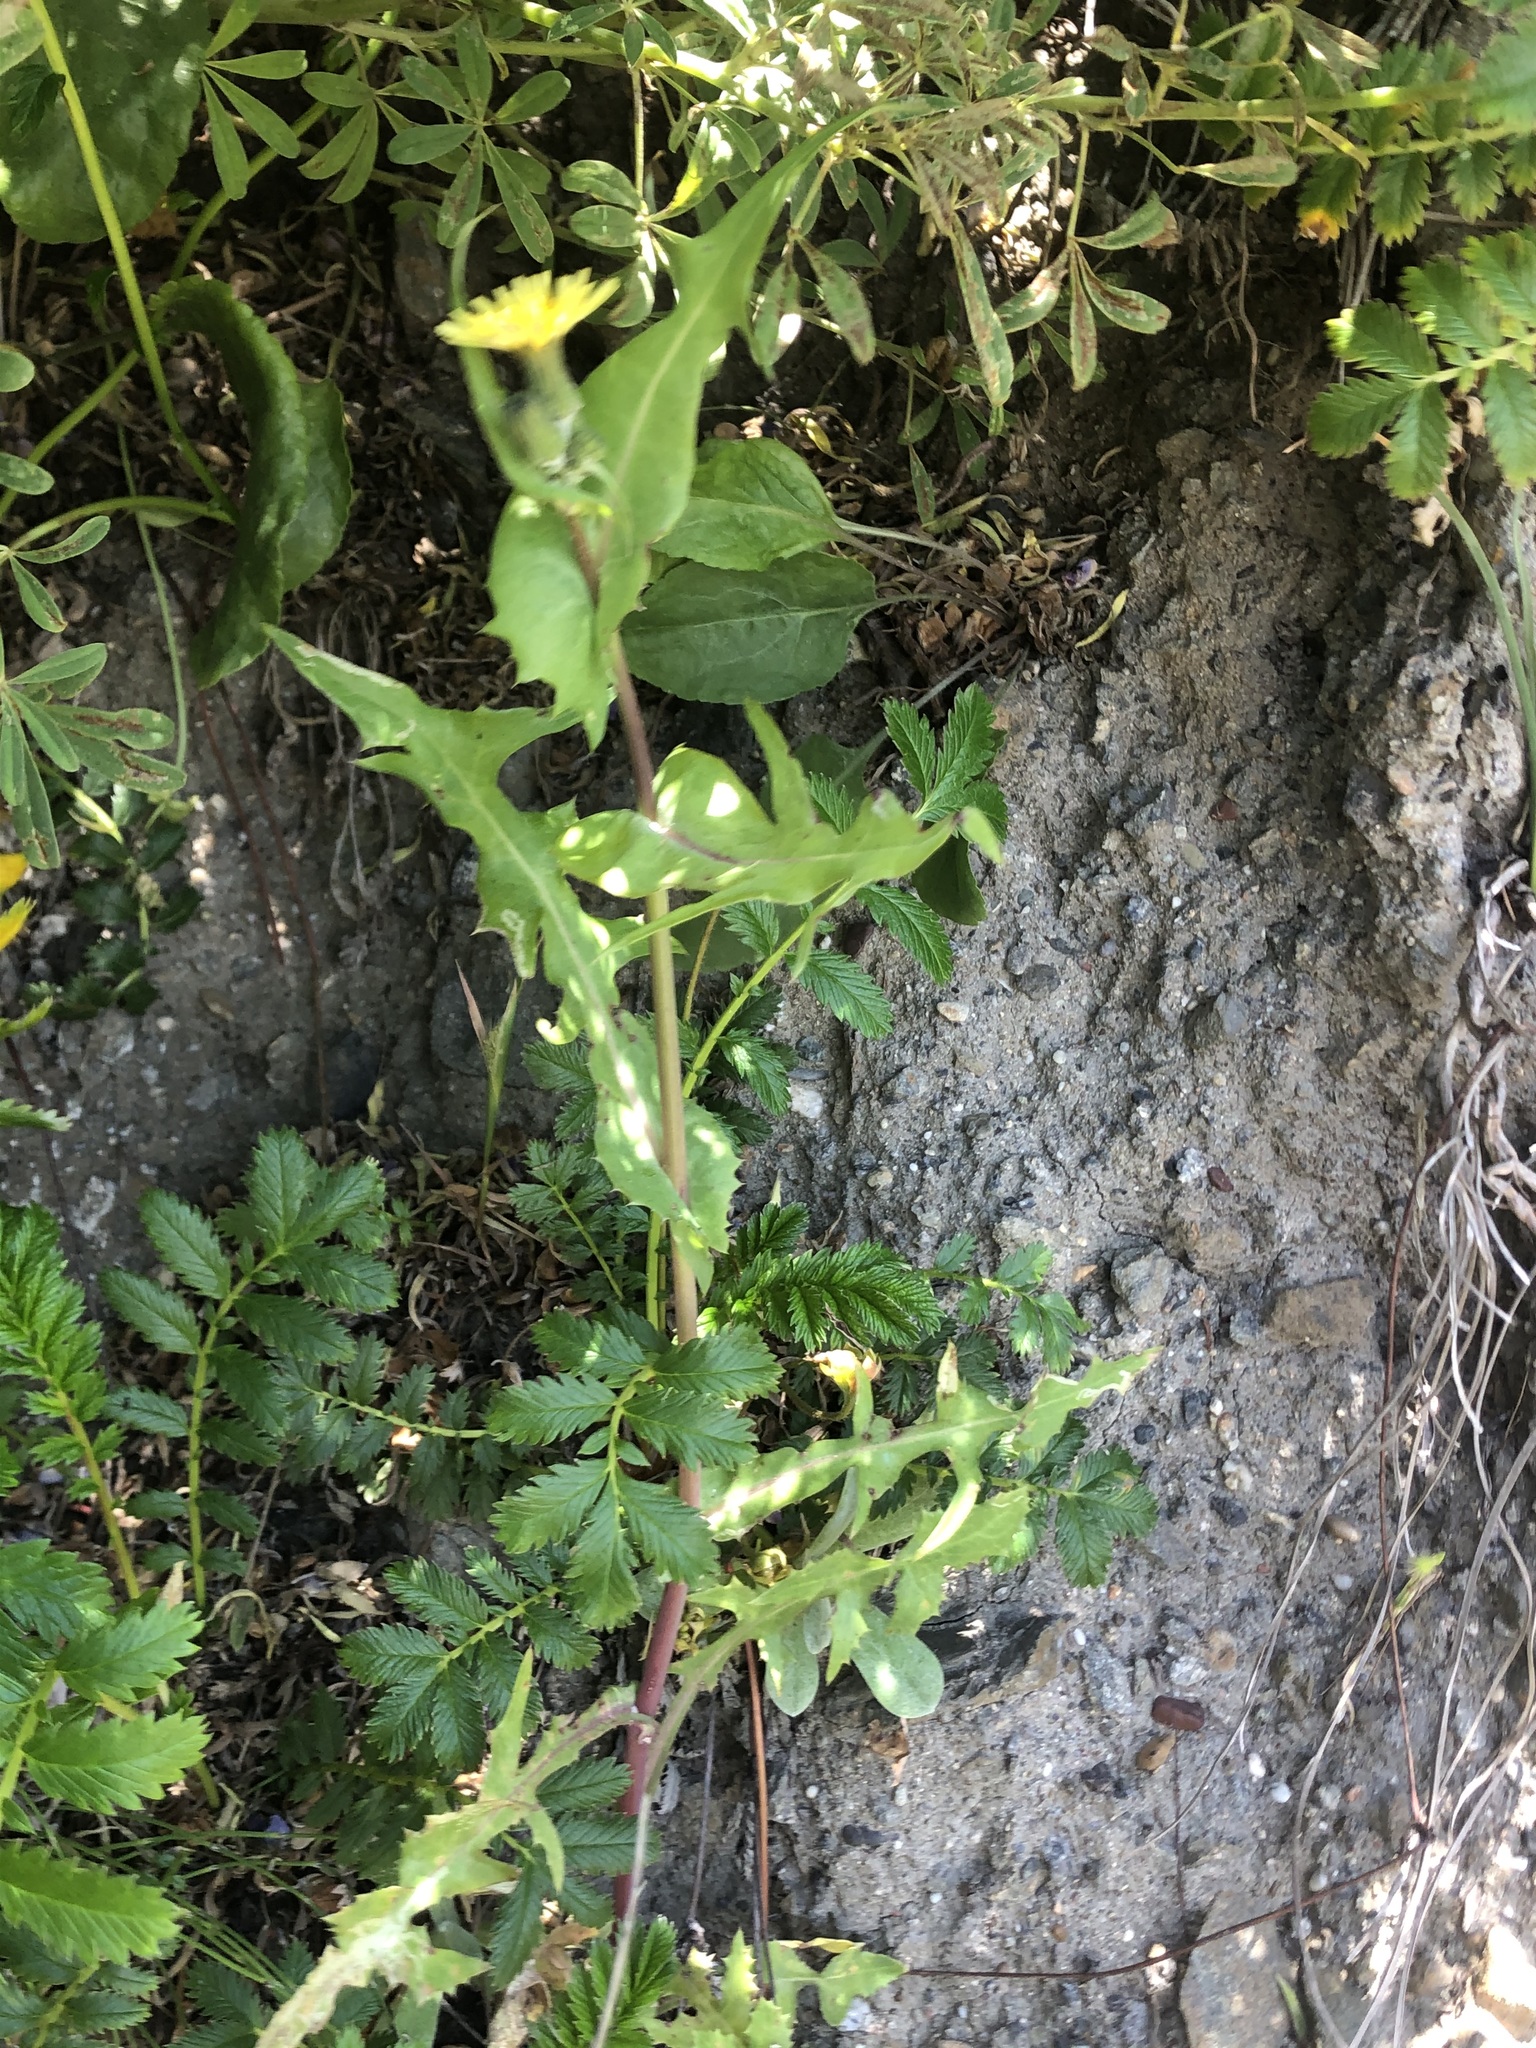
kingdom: Plantae
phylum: Tracheophyta
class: Magnoliopsida
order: Asterales
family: Asteraceae
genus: Sonchus
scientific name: Sonchus oleraceus
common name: Common sowthistle
